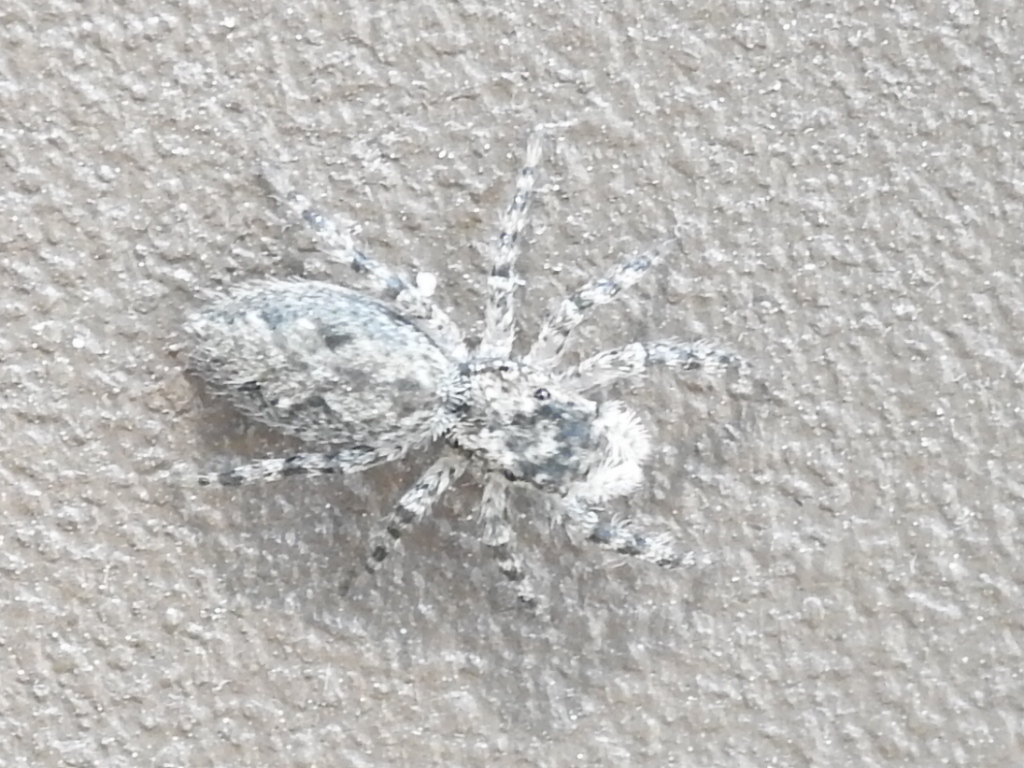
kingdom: Animalia
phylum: Arthropoda
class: Arachnida
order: Araneae
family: Salticidae
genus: Platycryptus
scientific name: Platycryptus undatus
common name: Tan jumping spider
